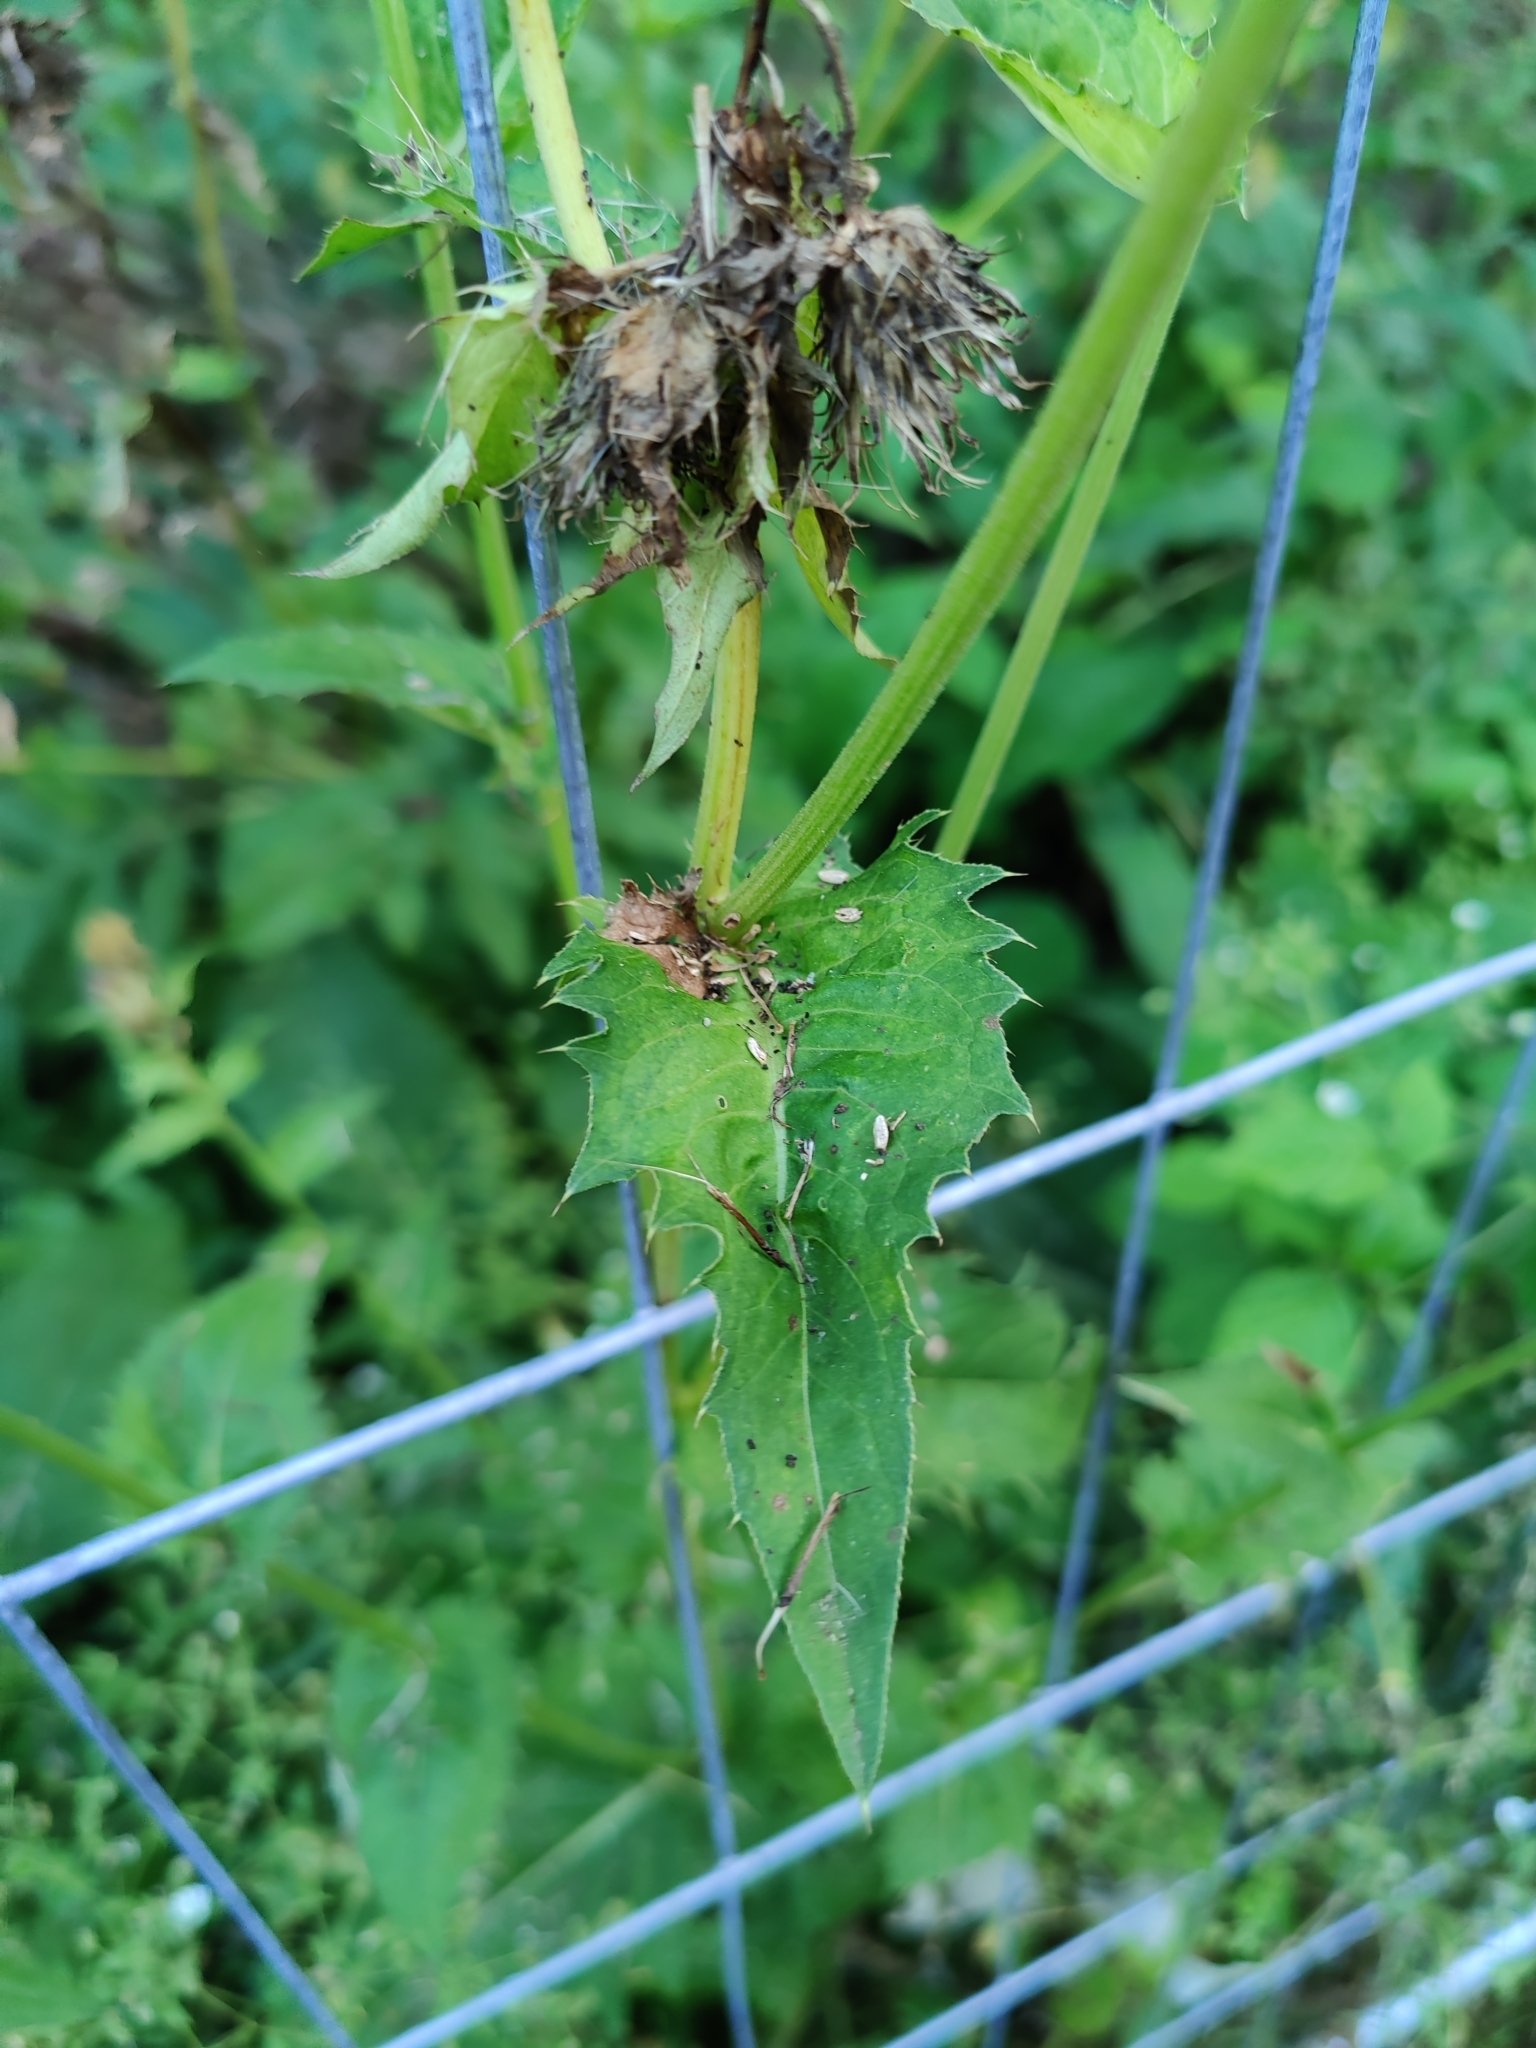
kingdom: Plantae
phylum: Tracheophyta
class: Magnoliopsida
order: Asterales
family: Asteraceae
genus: Cirsium
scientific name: Cirsium oleraceum
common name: Cabbage thistle
